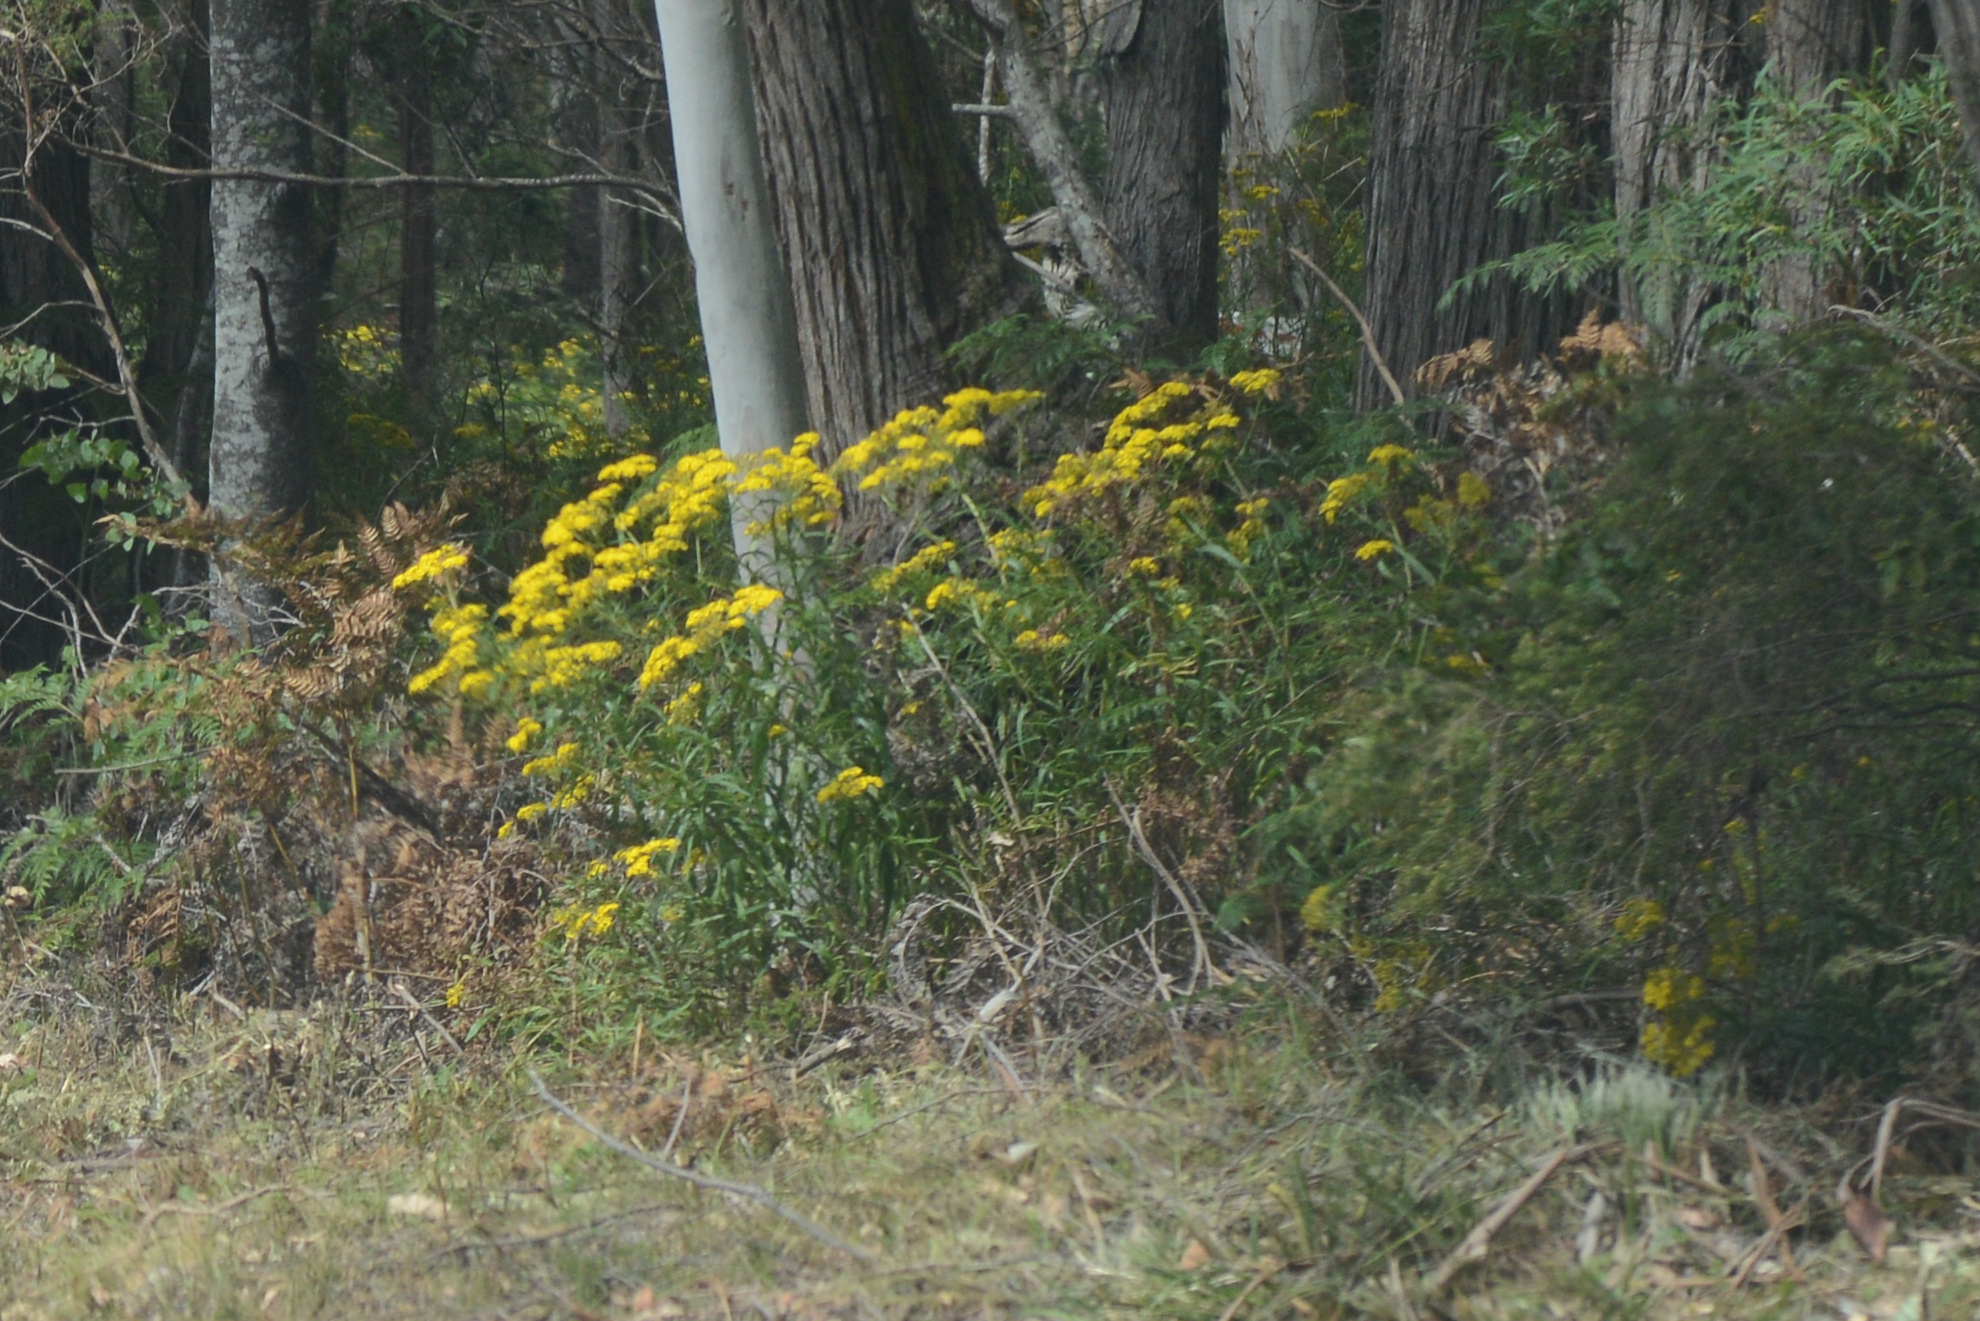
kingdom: Plantae
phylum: Tracheophyta
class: Magnoliopsida
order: Asterales
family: Asteraceae
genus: Senecio
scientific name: Senecio linearifolius
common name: Fireweed groundsel
